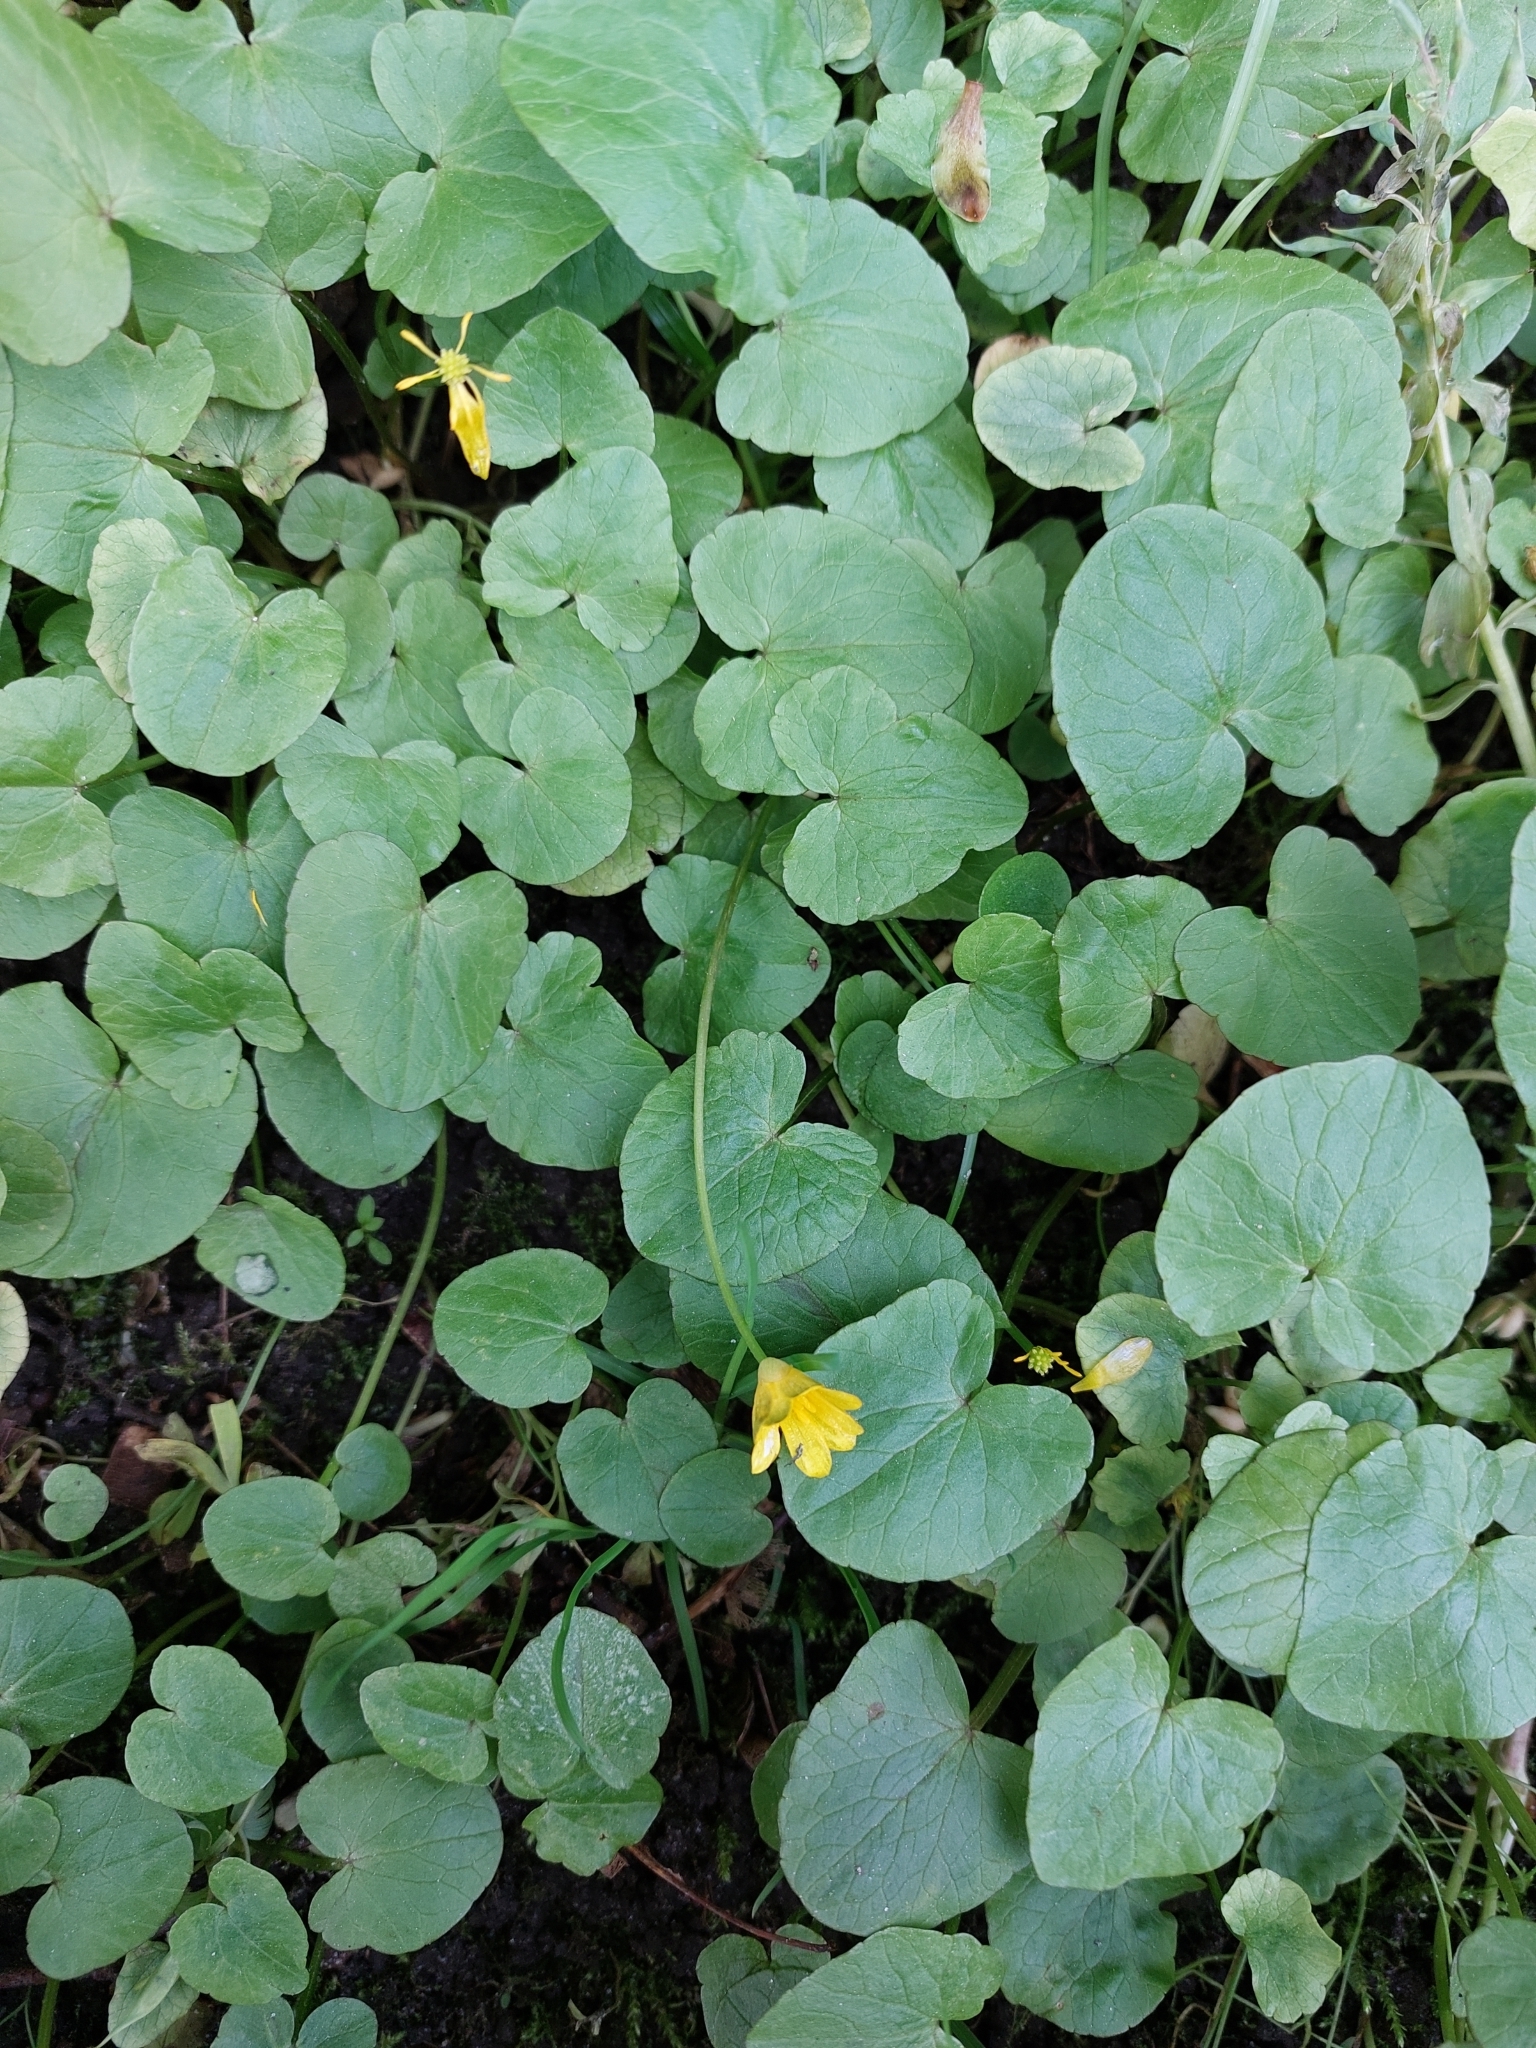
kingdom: Plantae
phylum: Tracheophyta
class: Magnoliopsida
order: Ranunculales
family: Ranunculaceae
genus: Ficaria
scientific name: Ficaria verna
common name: Lesser celandine
